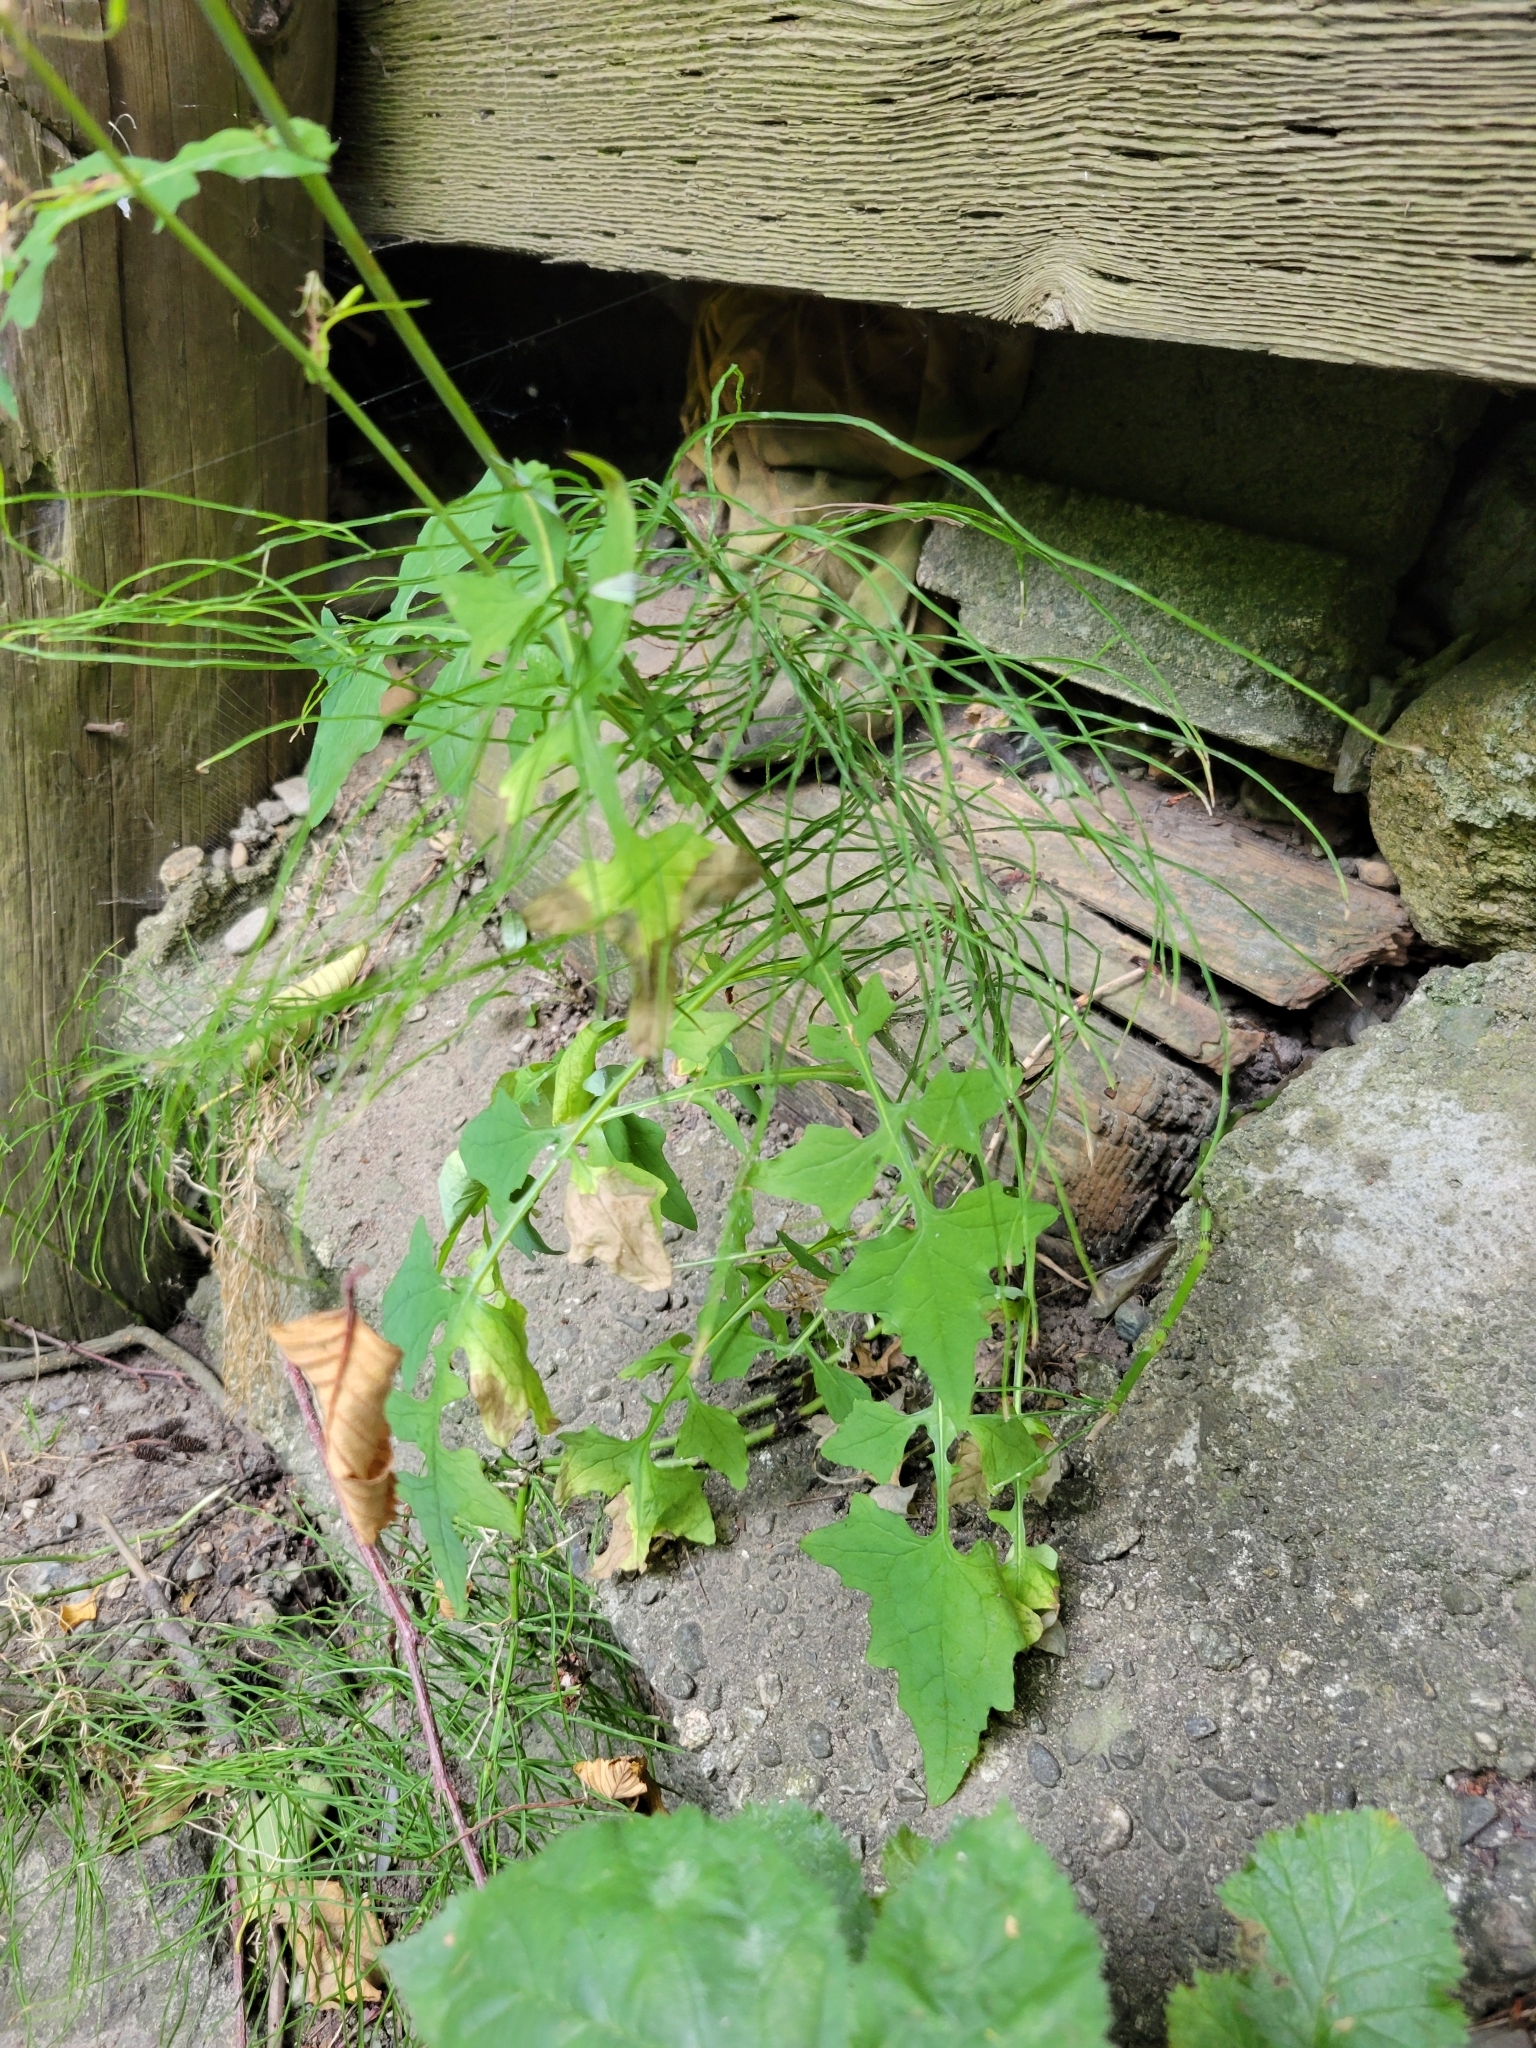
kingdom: Plantae
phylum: Tracheophyta
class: Magnoliopsida
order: Asterales
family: Asteraceae
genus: Mycelis
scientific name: Mycelis muralis
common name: Wall lettuce
